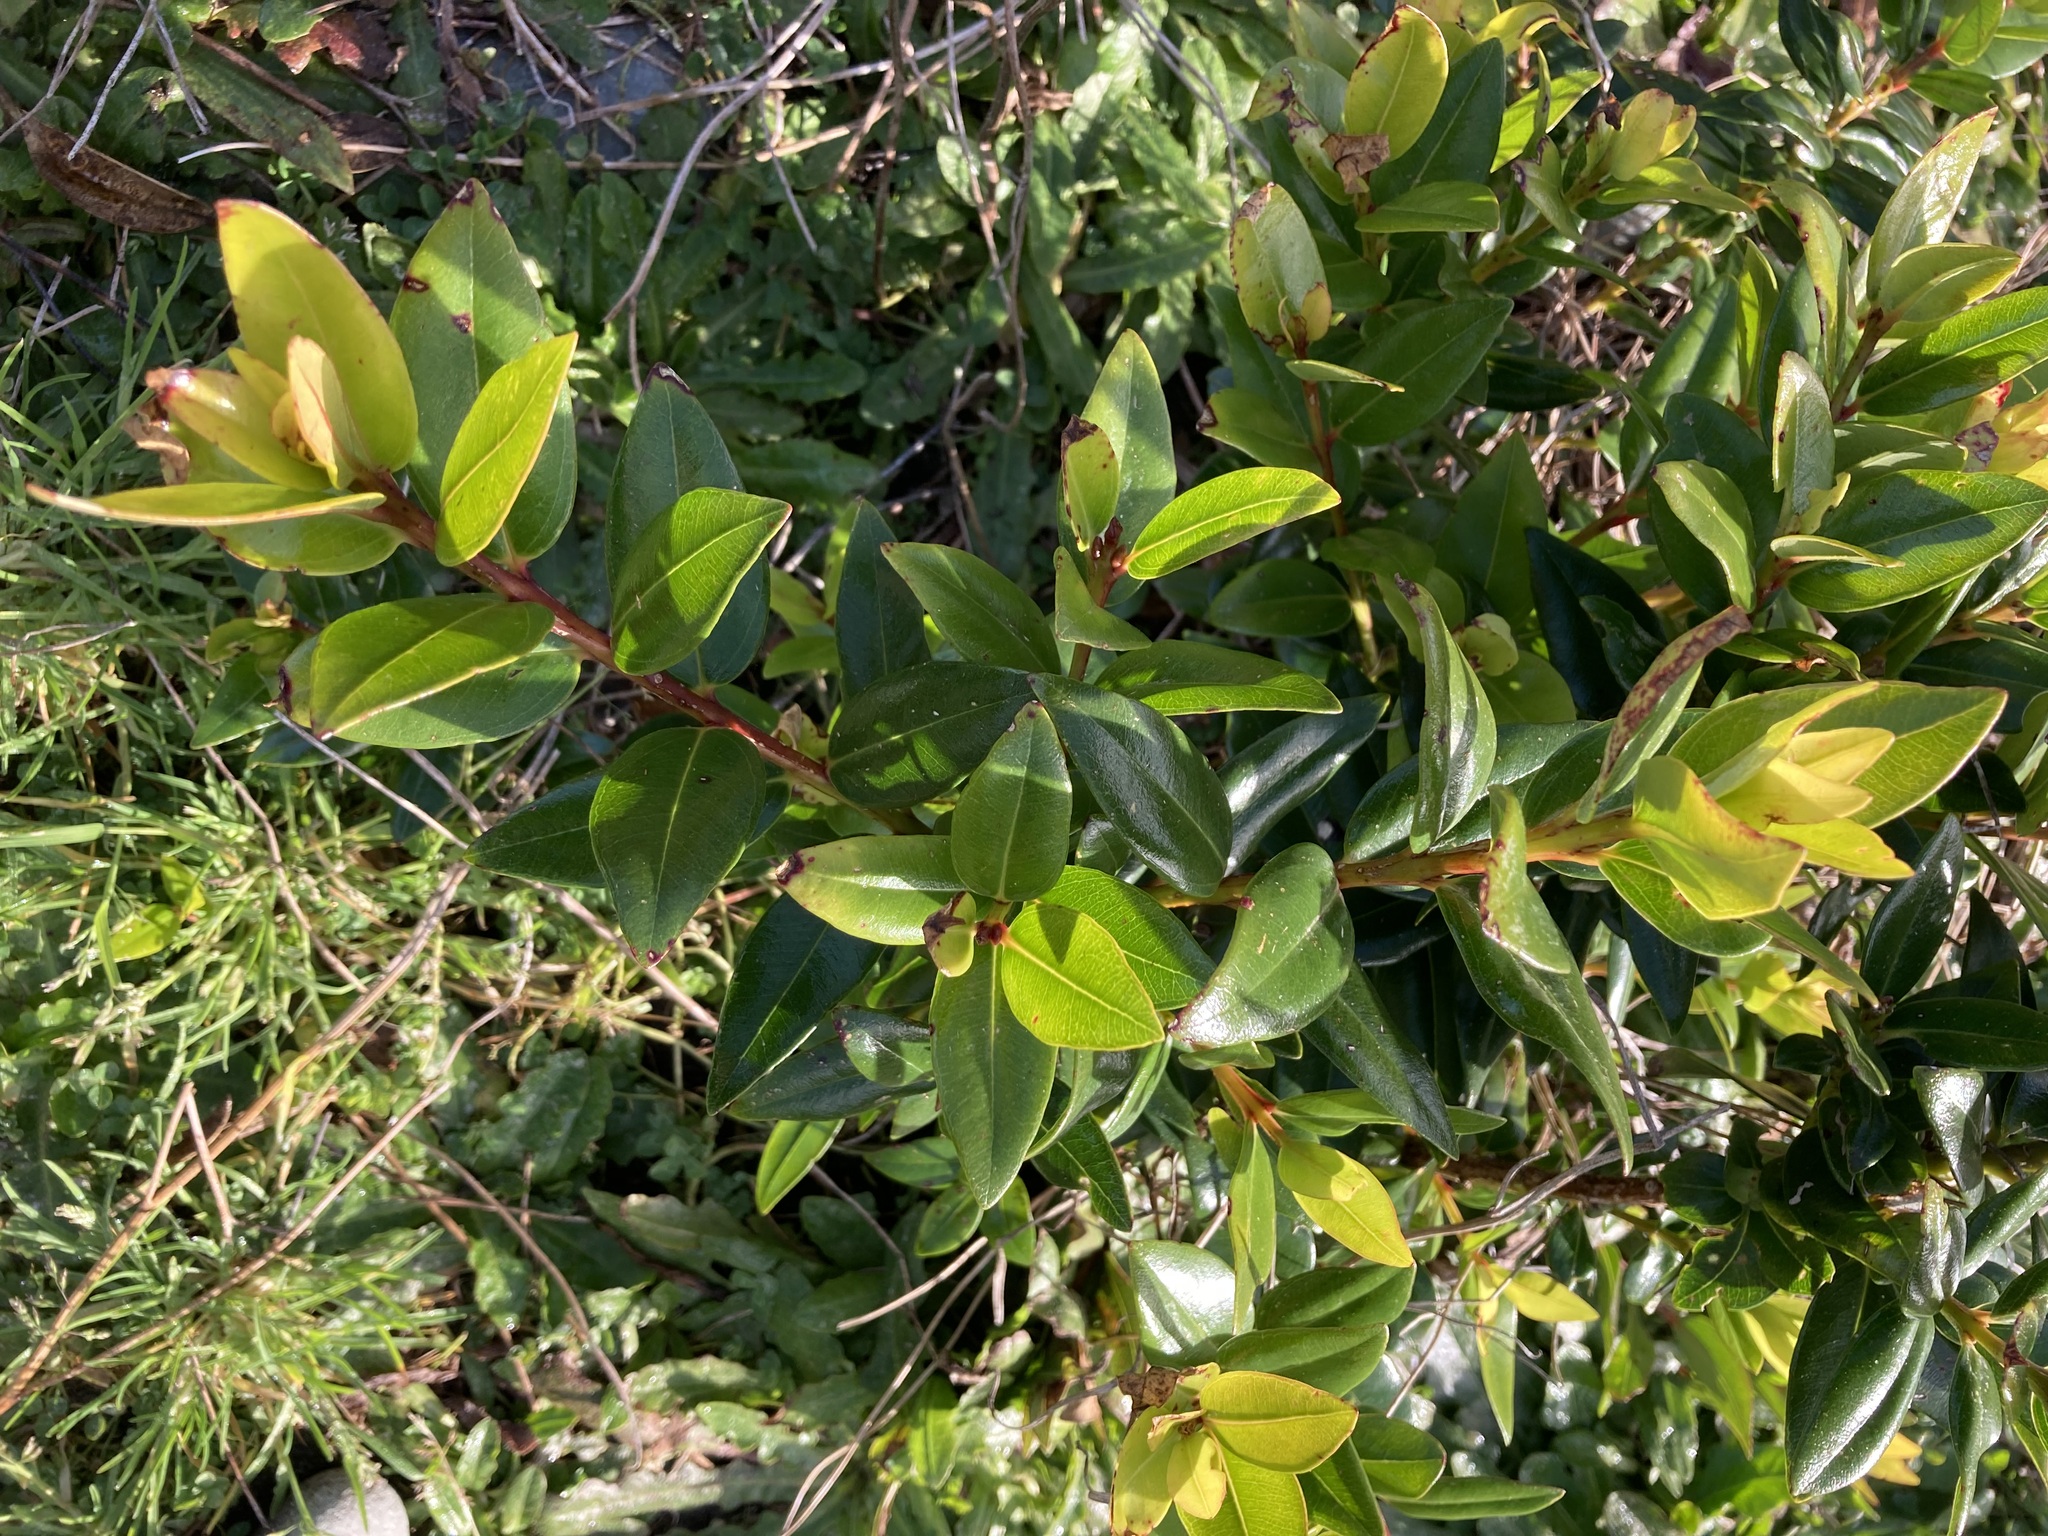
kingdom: Plantae
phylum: Tracheophyta
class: Magnoliopsida
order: Myrtales
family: Myrtaceae
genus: Metrosideros
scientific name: Metrosideros excelsa
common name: New zealand christmastree
